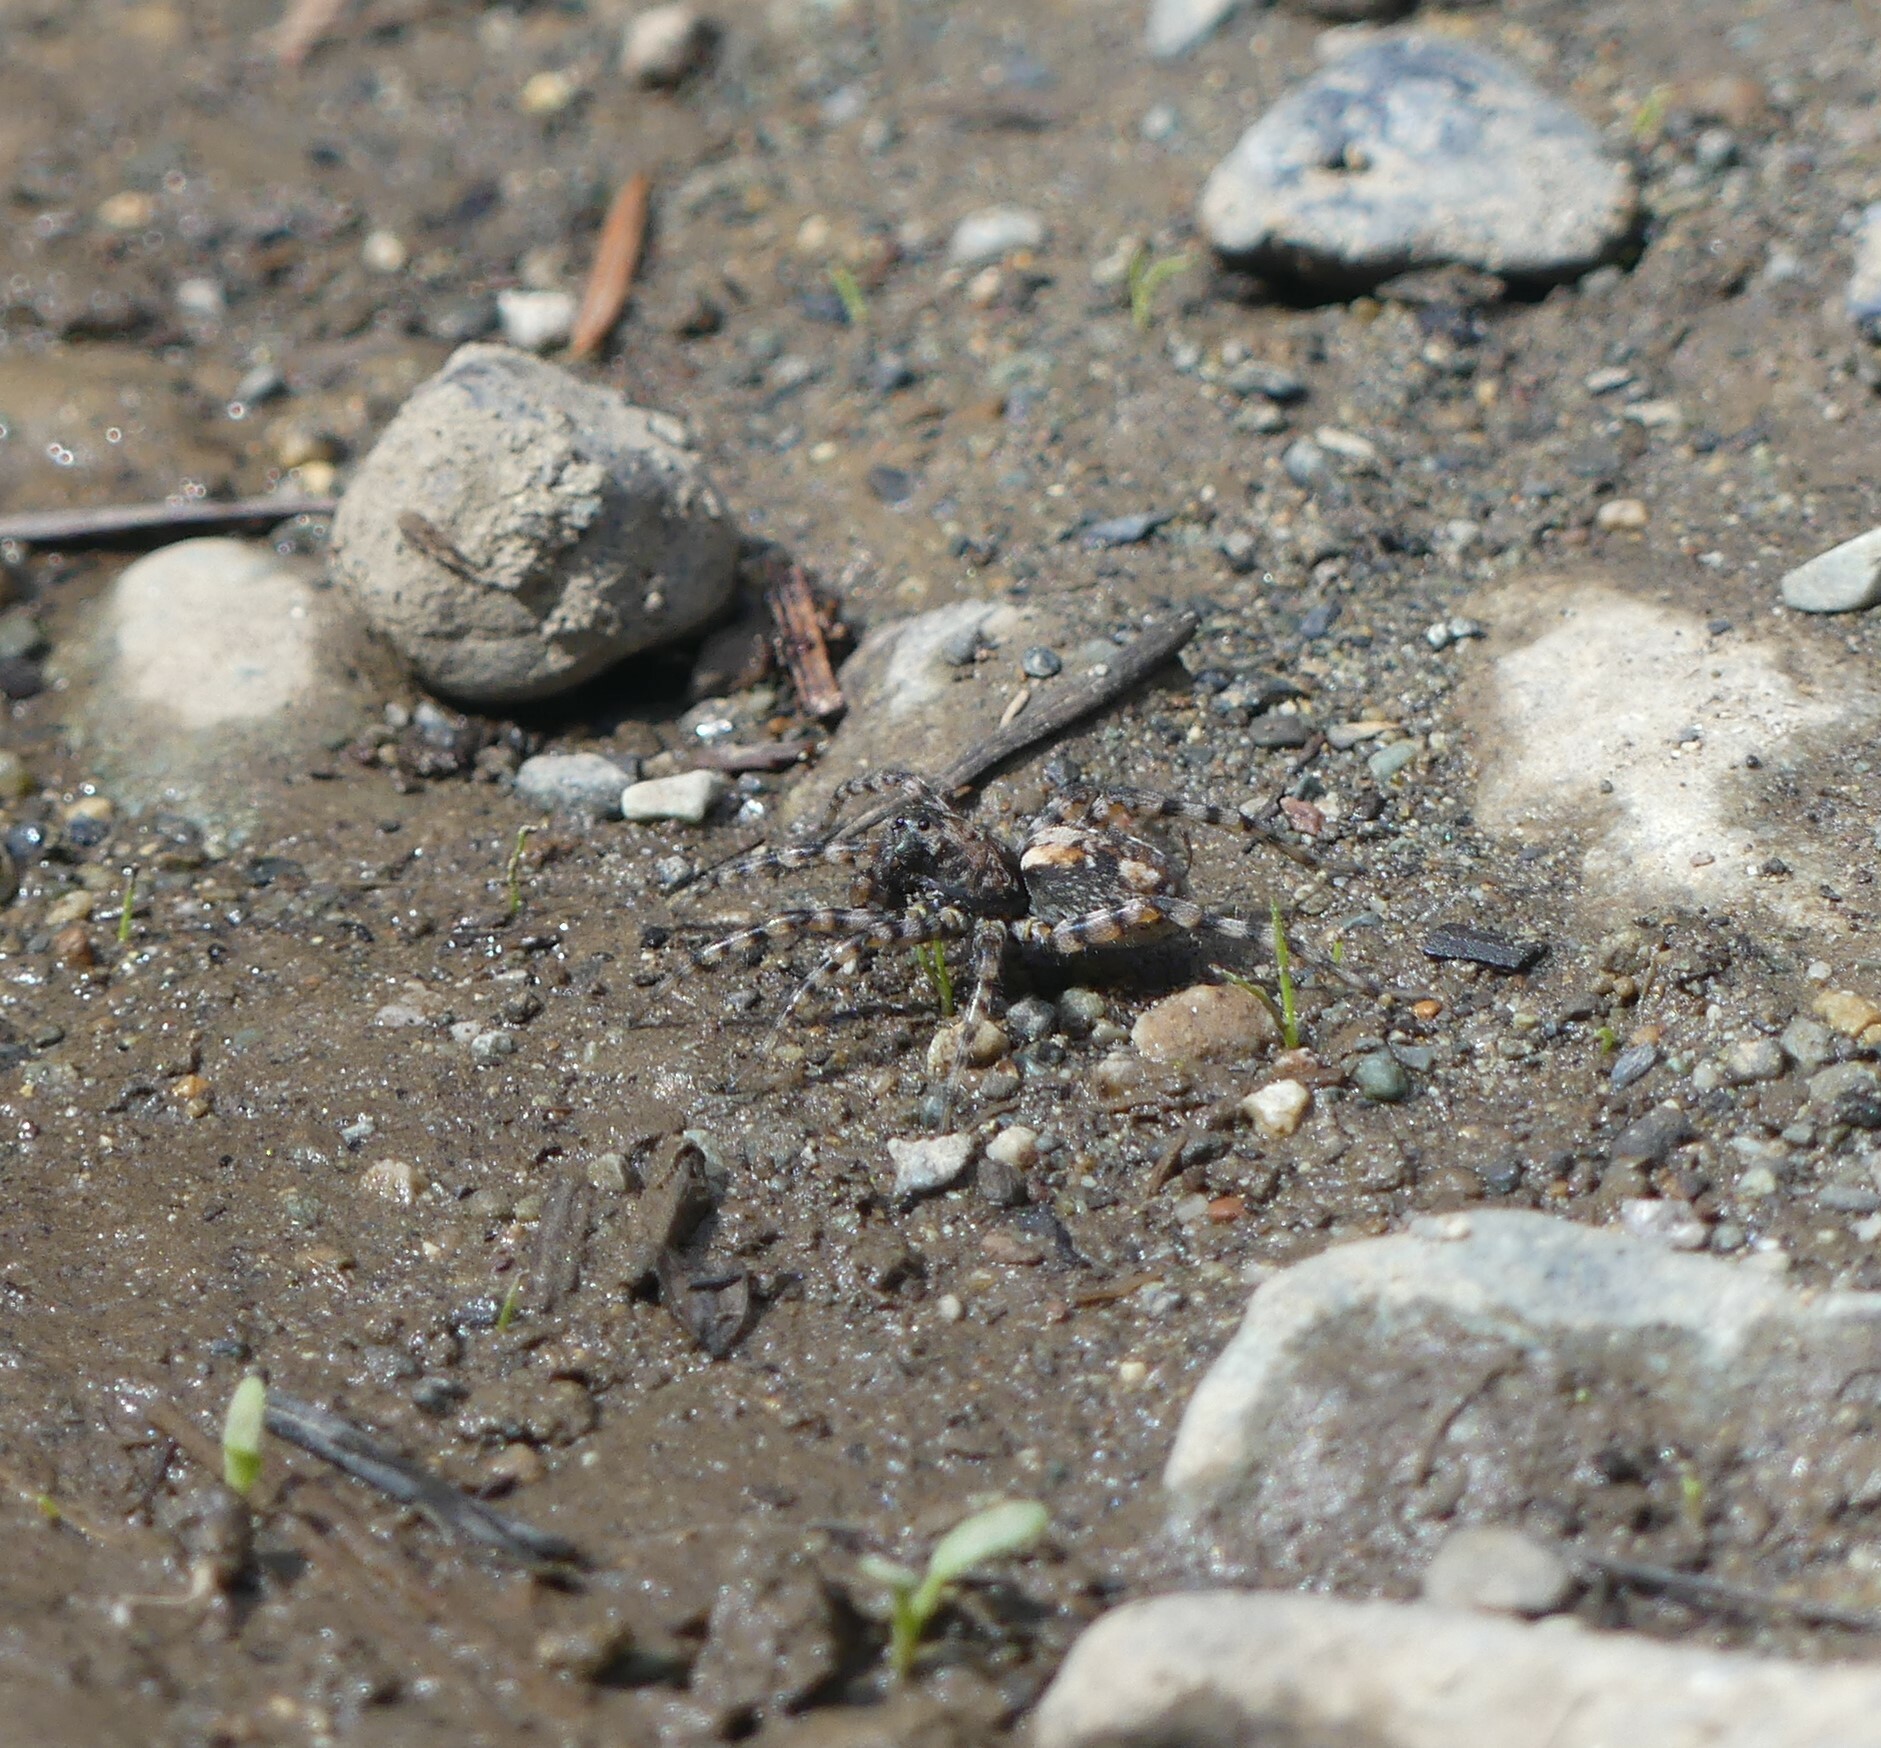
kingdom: Animalia
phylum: Arthropoda
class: Arachnida
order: Araneae
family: Lycosidae
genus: Arctosa
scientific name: Arctosa perita
